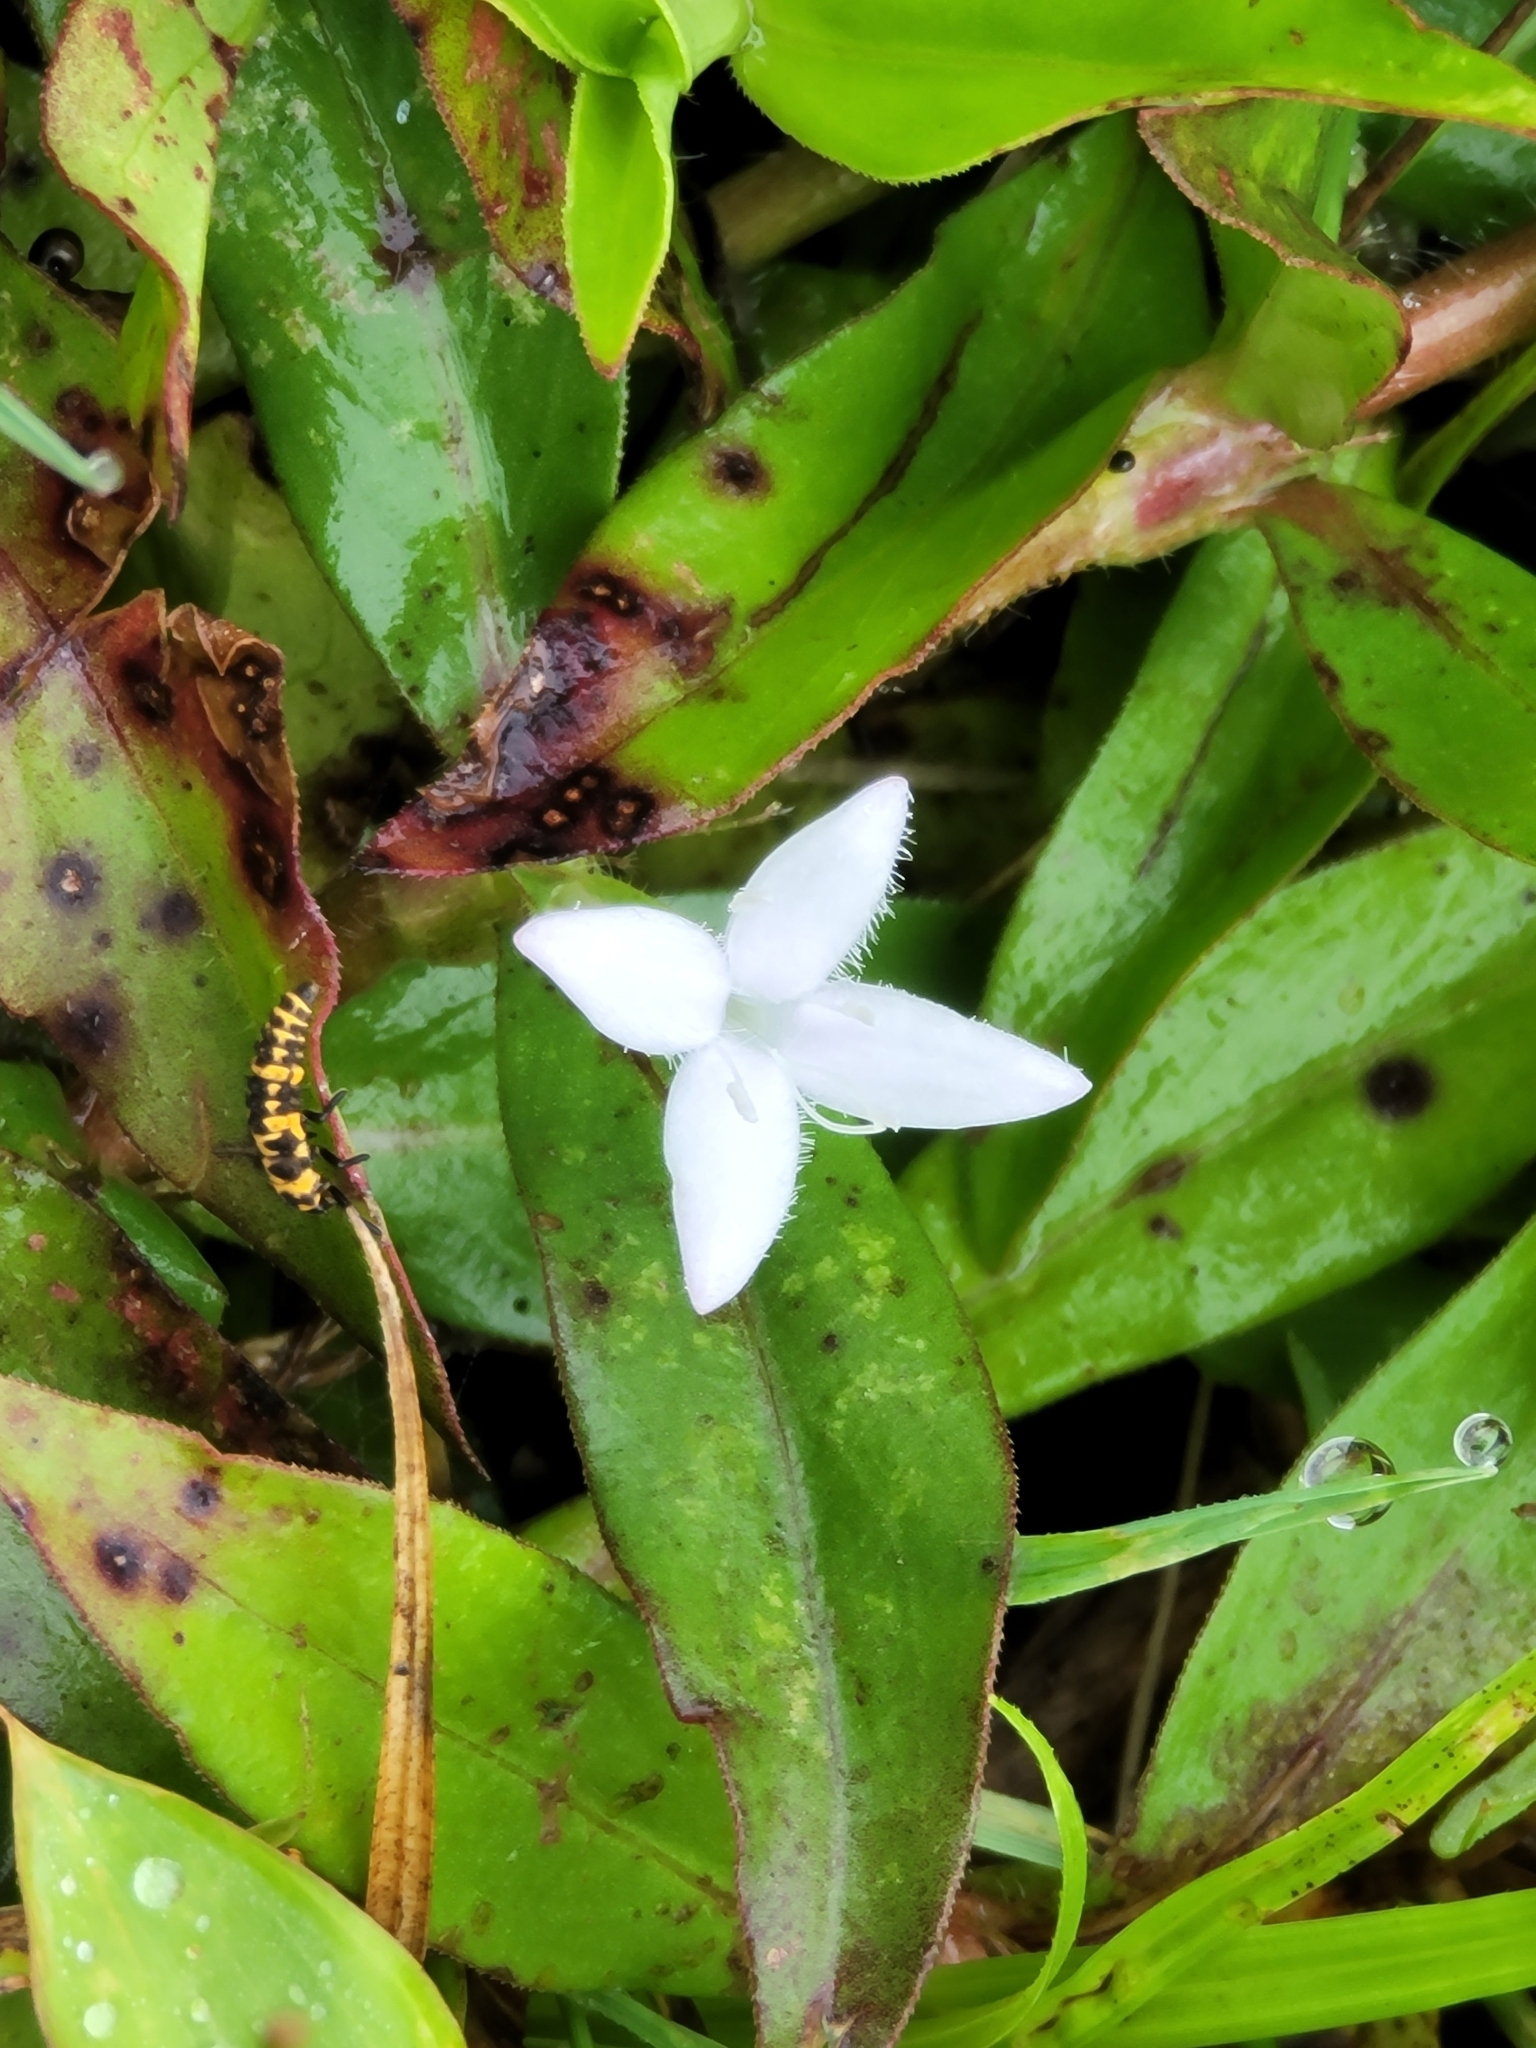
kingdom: Plantae
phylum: Tracheophyta
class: Magnoliopsida
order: Gentianales
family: Rubiaceae
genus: Diodia
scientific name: Diodia virginiana
